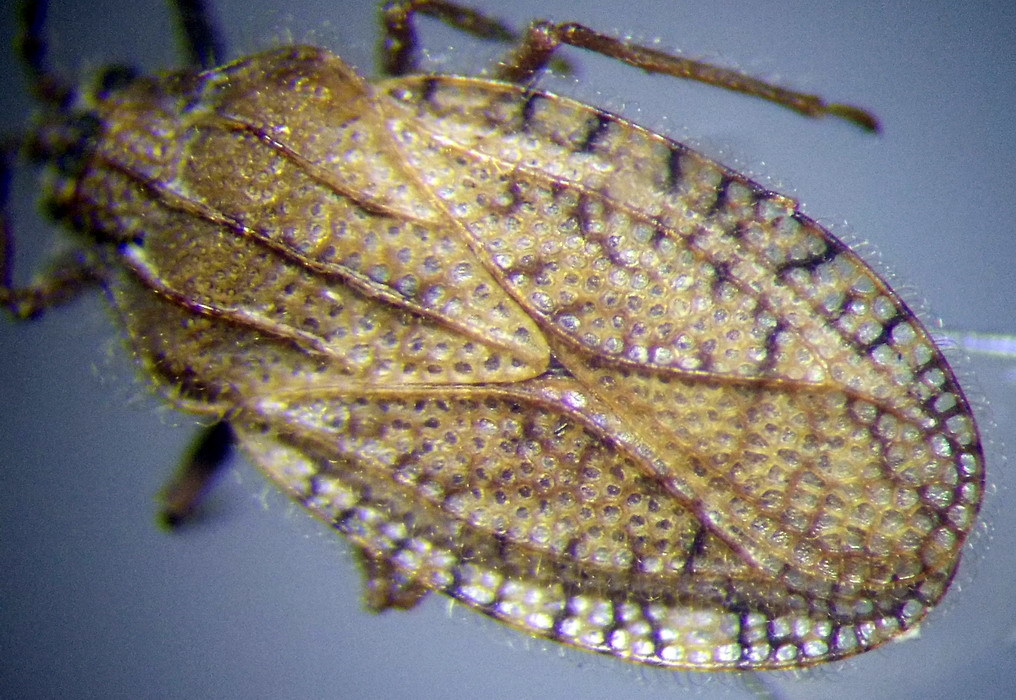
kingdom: Animalia
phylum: Arthropoda
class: Insecta
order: Hemiptera
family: Tingidae
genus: Tingis
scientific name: Tingis pilosa
